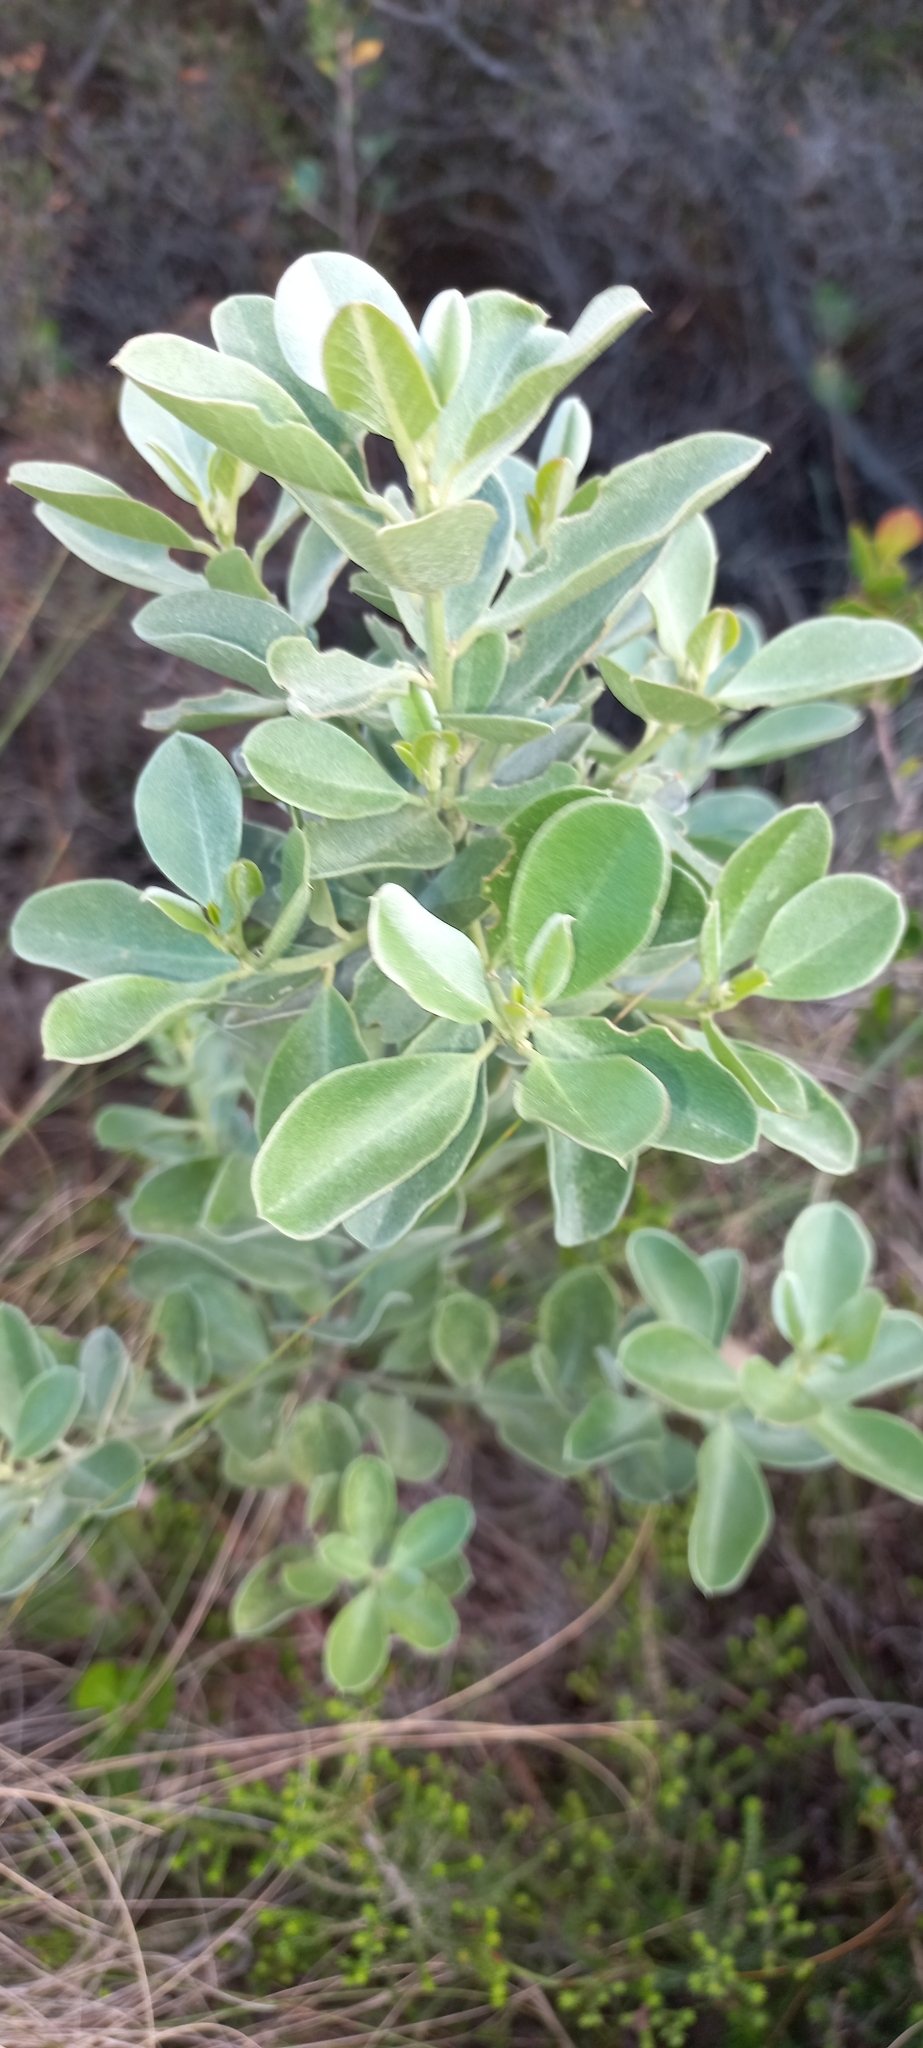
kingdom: Plantae
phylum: Tracheophyta
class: Magnoliopsida
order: Fabales
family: Fabaceae
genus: Podalyria
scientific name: Podalyria myrtillifolia
